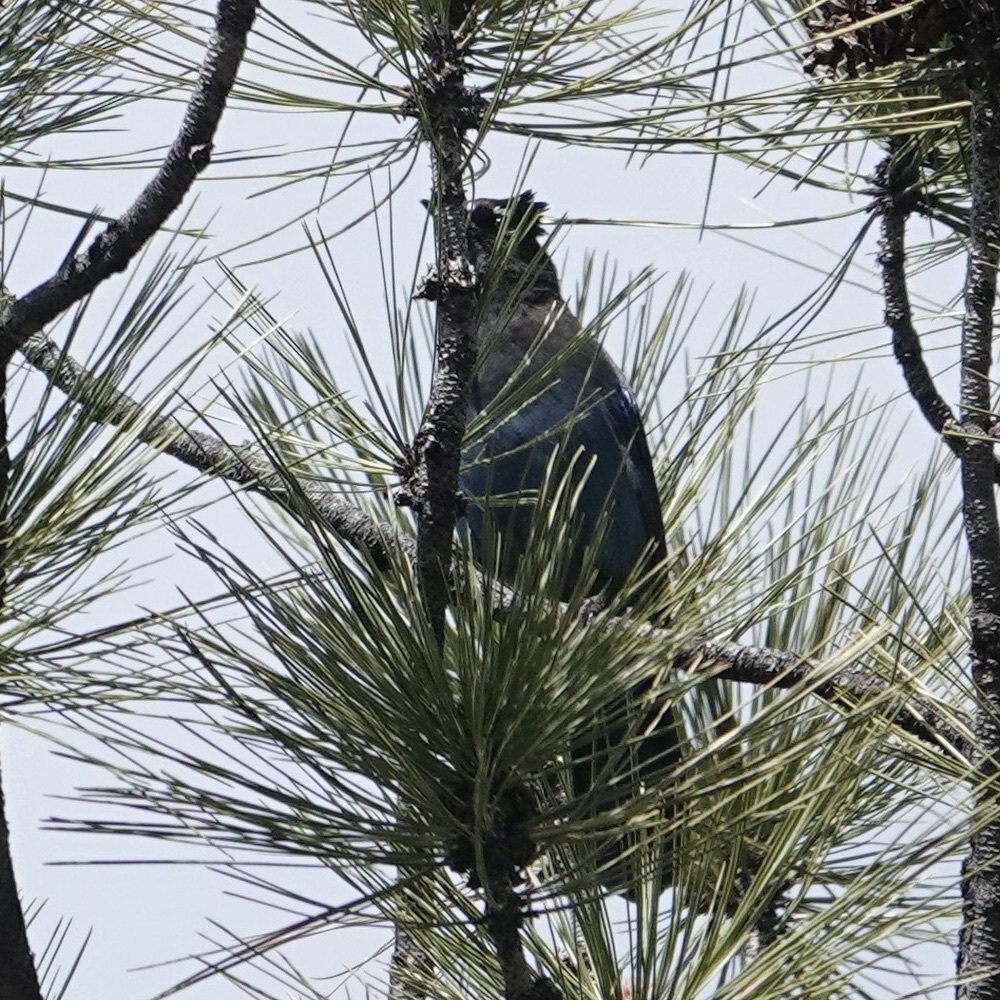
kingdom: Animalia
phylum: Chordata
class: Aves
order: Passeriformes
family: Corvidae
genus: Cyanocitta
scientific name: Cyanocitta stelleri
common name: Steller's jay
